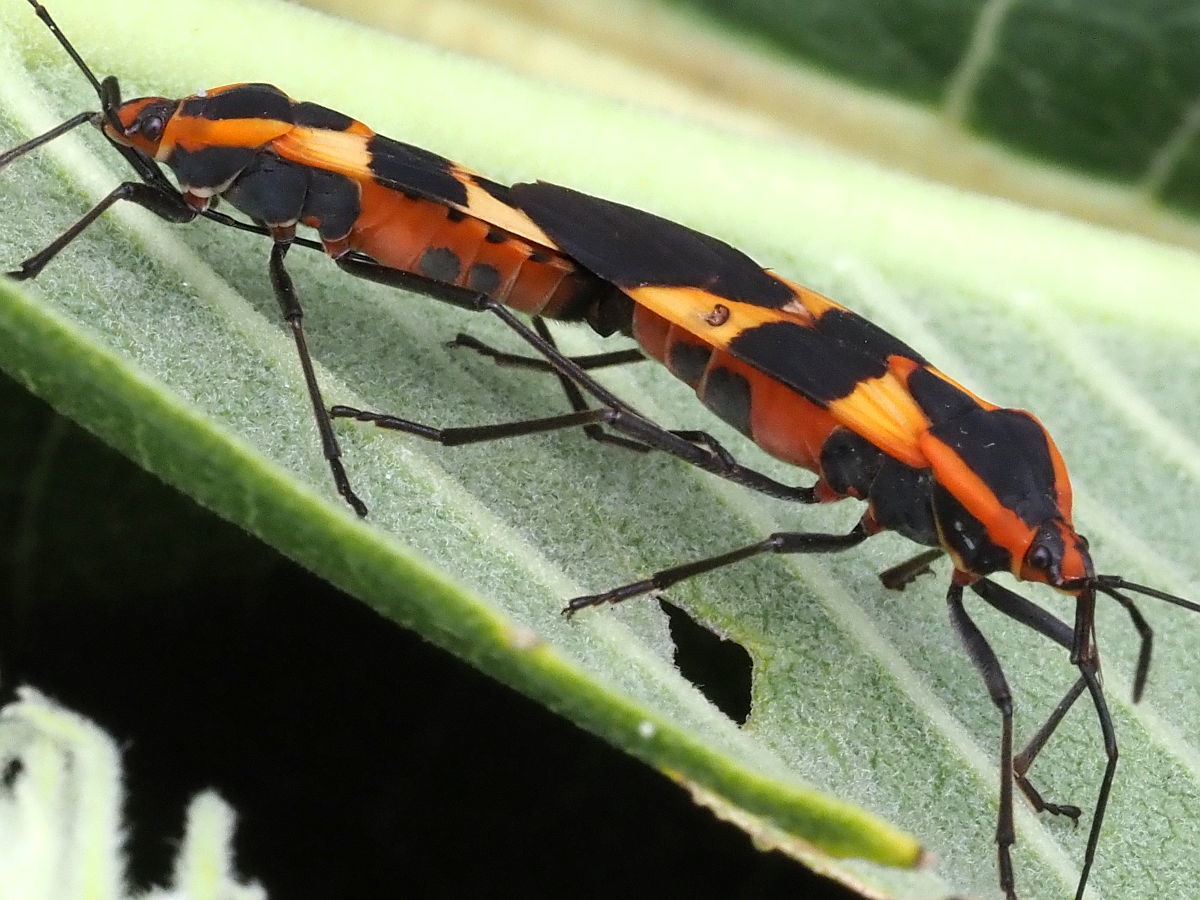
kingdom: Animalia
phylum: Arthropoda
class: Insecta
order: Hemiptera
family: Lygaeidae
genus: Oncopeltus
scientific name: Oncopeltus fasciatus
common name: Large milkweed bug
